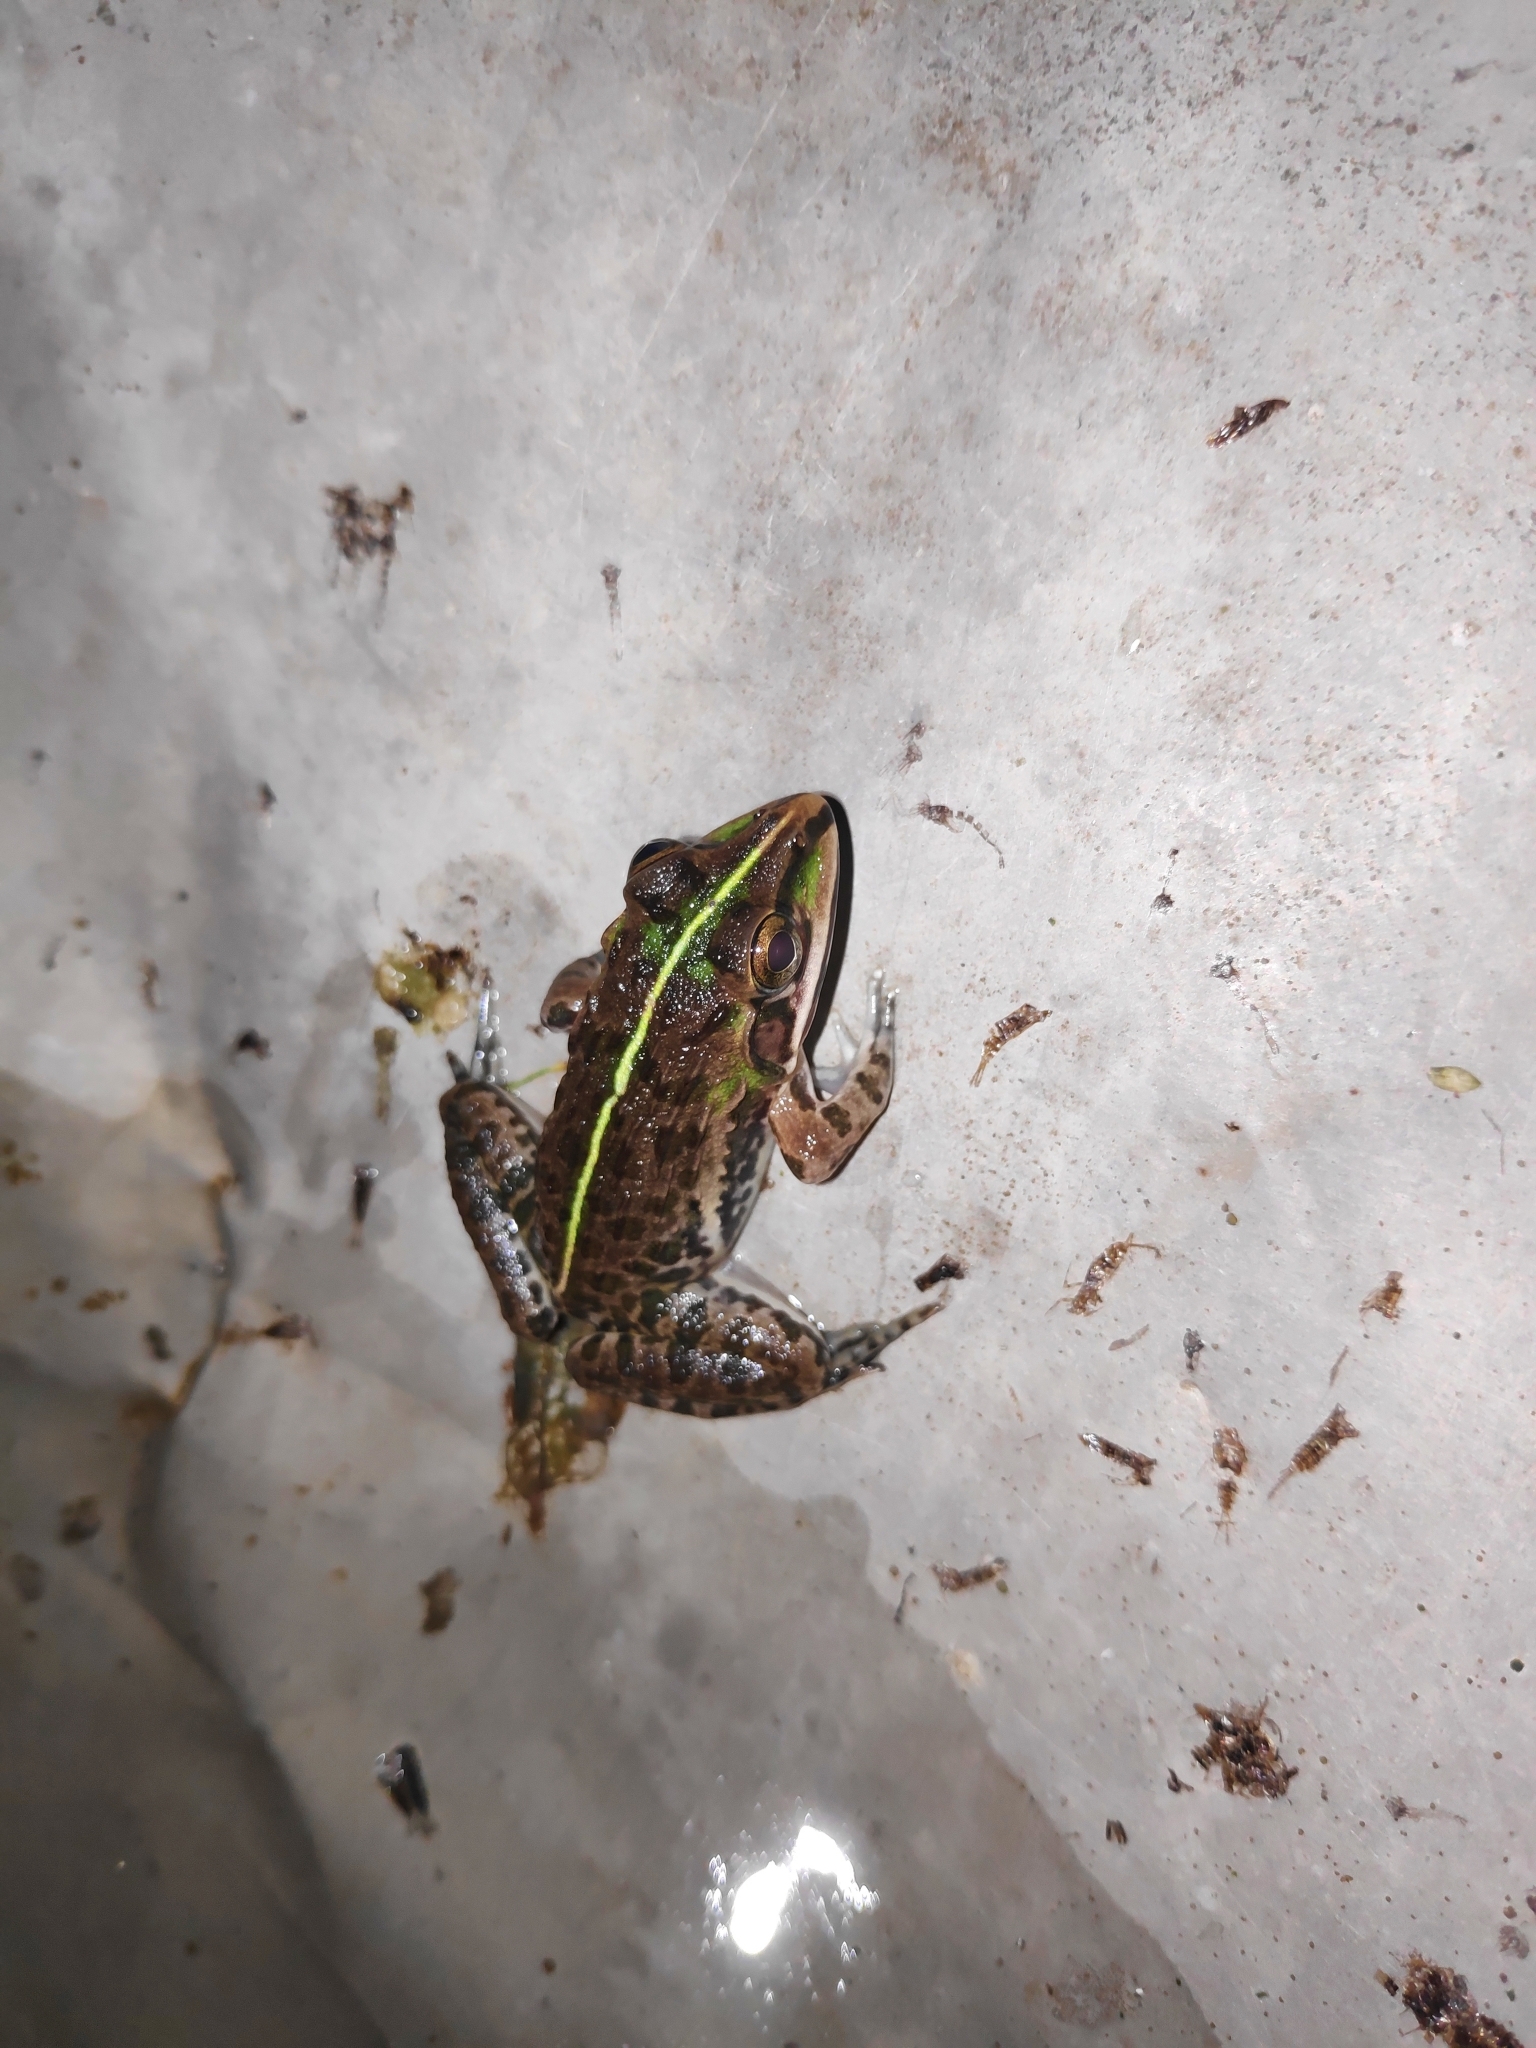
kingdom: Animalia
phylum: Chordata
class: Amphibia
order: Anura
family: Dicroglossidae
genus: Hoplobatrachus
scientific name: Hoplobatrachus tigerinus
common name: Indian bullfrog
